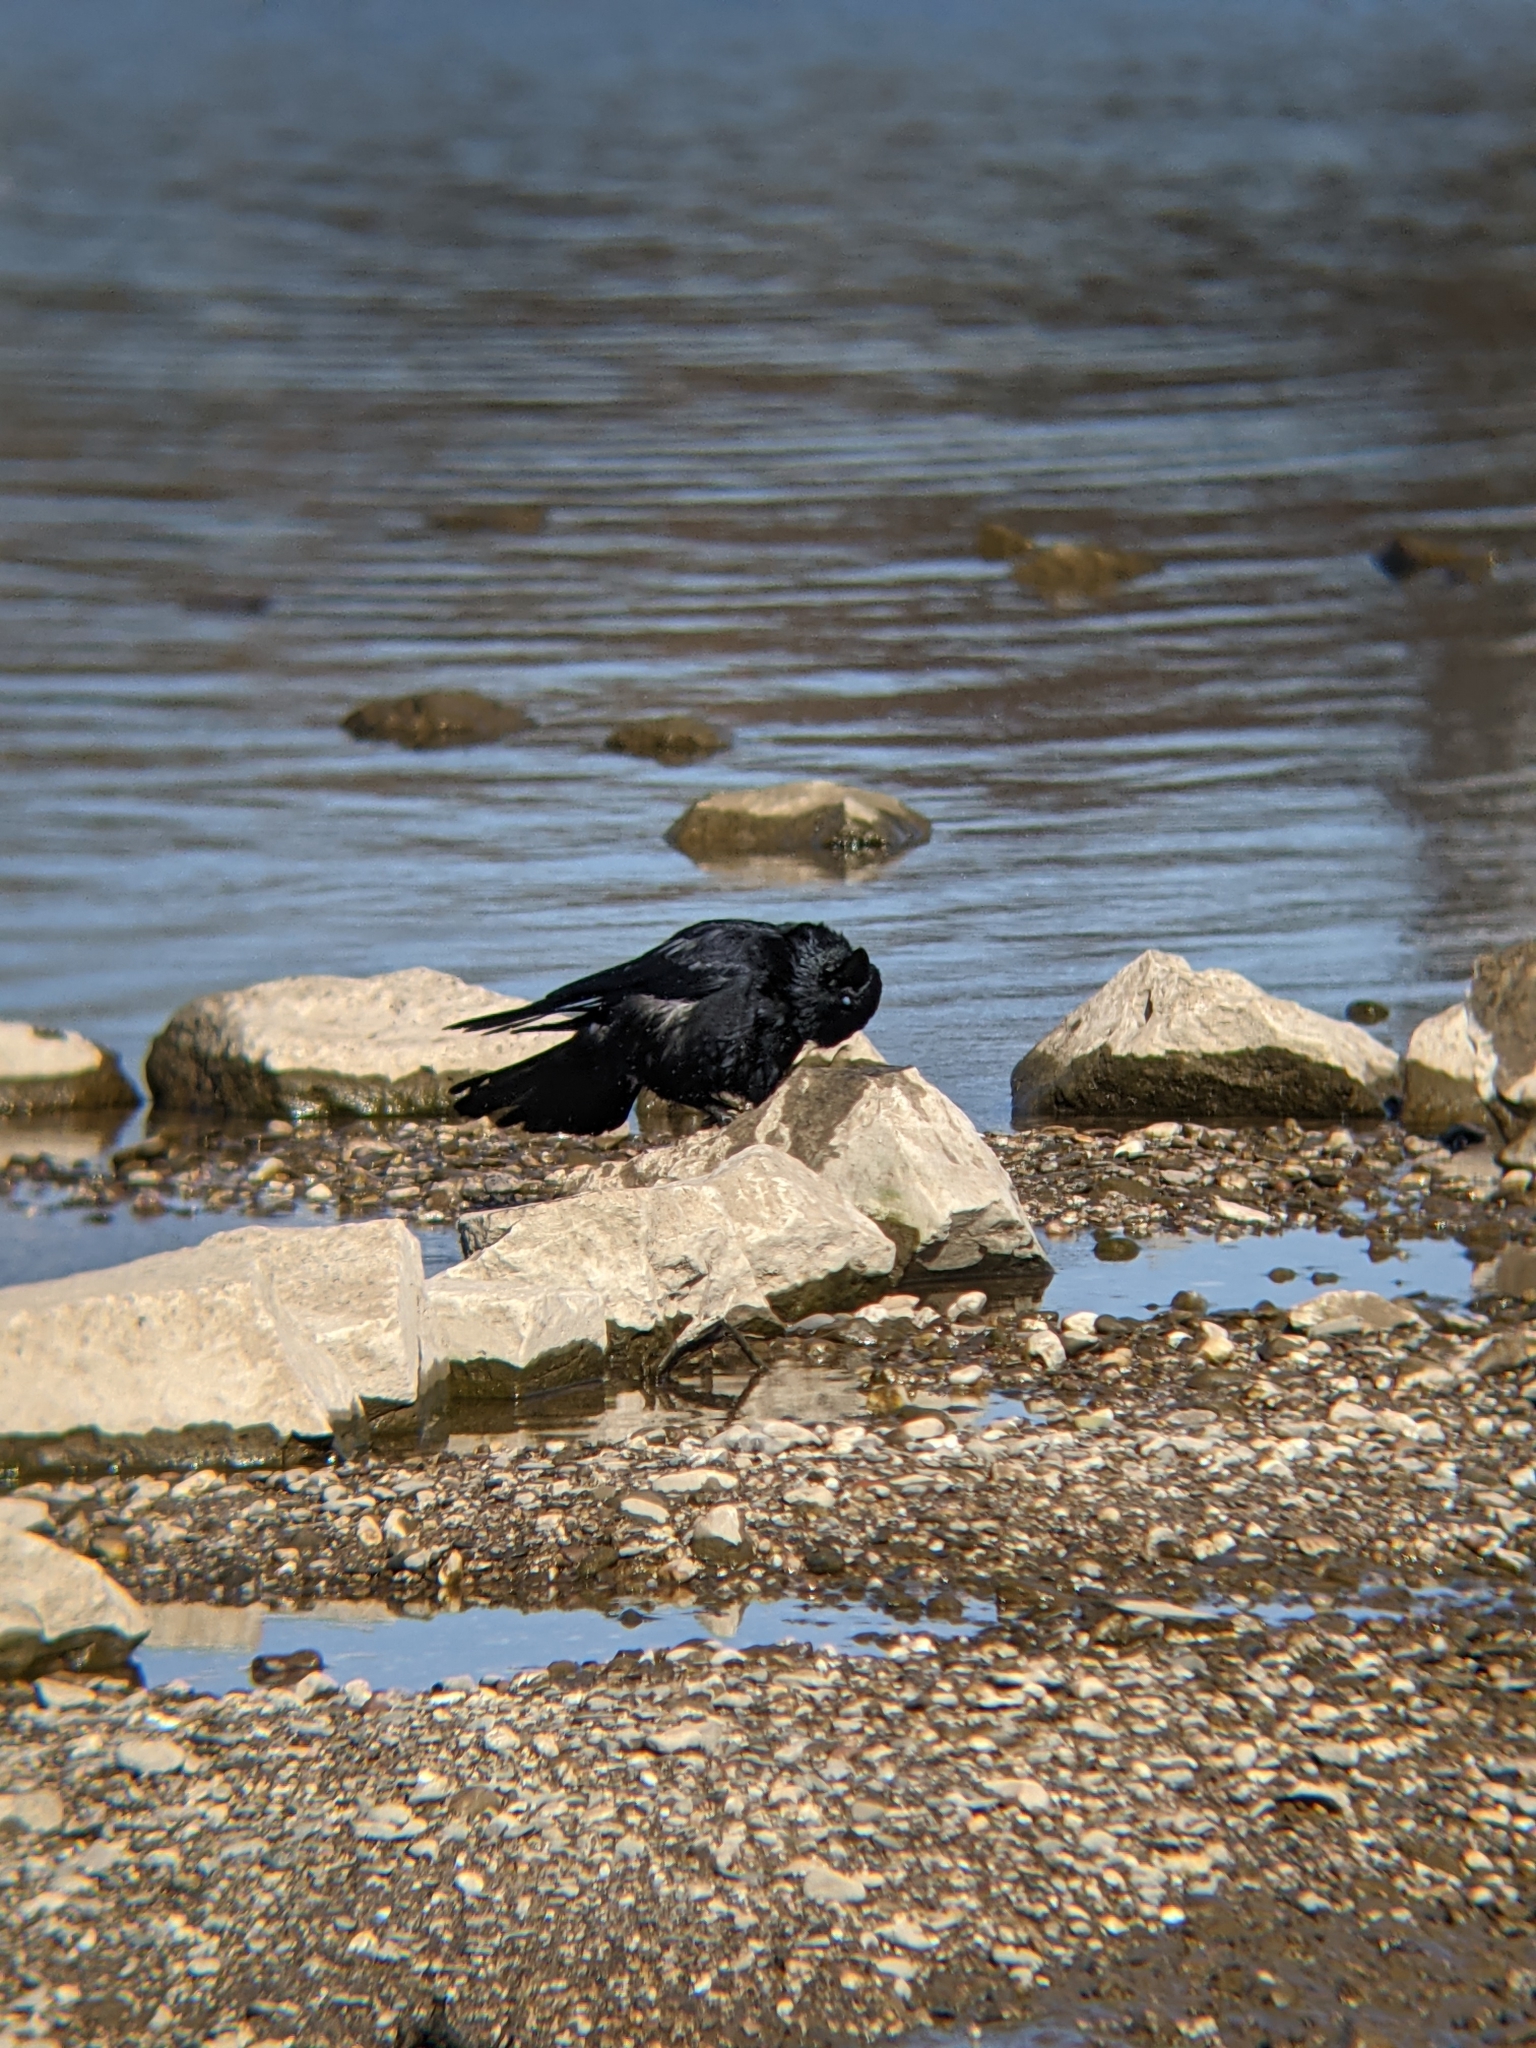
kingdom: Animalia
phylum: Chordata
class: Aves
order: Passeriformes
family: Corvidae
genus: Corvus
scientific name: Corvus corone
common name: Carrion crow
